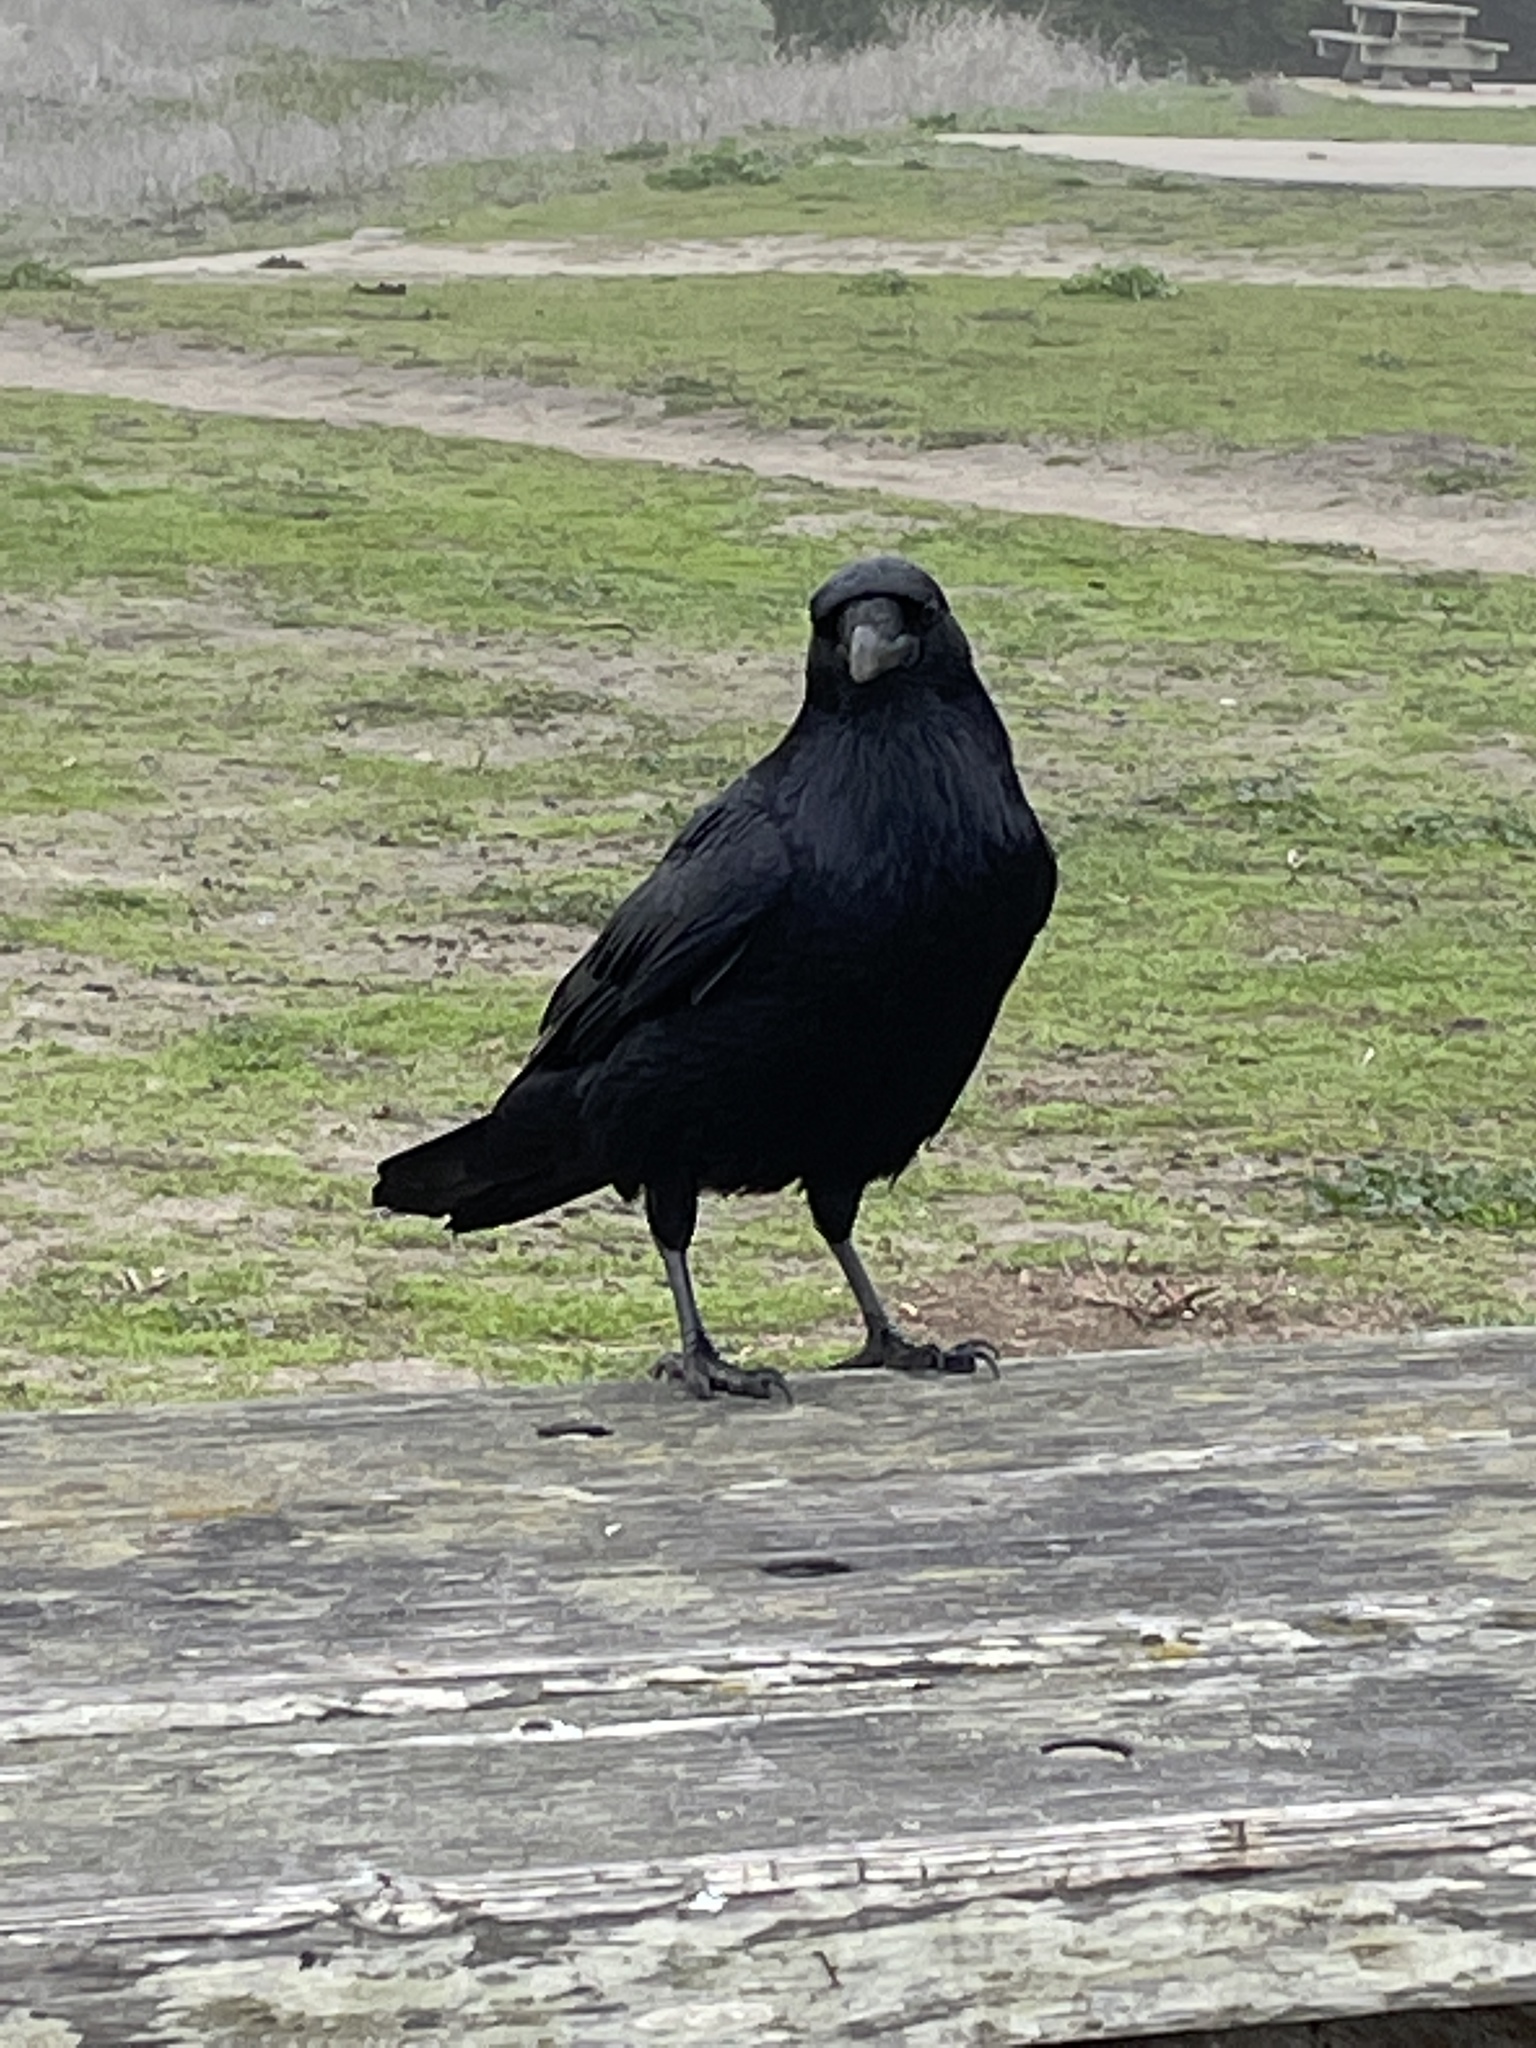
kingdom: Animalia
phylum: Chordata
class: Aves
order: Passeriformes
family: Corvidae
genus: Corvus
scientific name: Corvus corax
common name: Common raven
